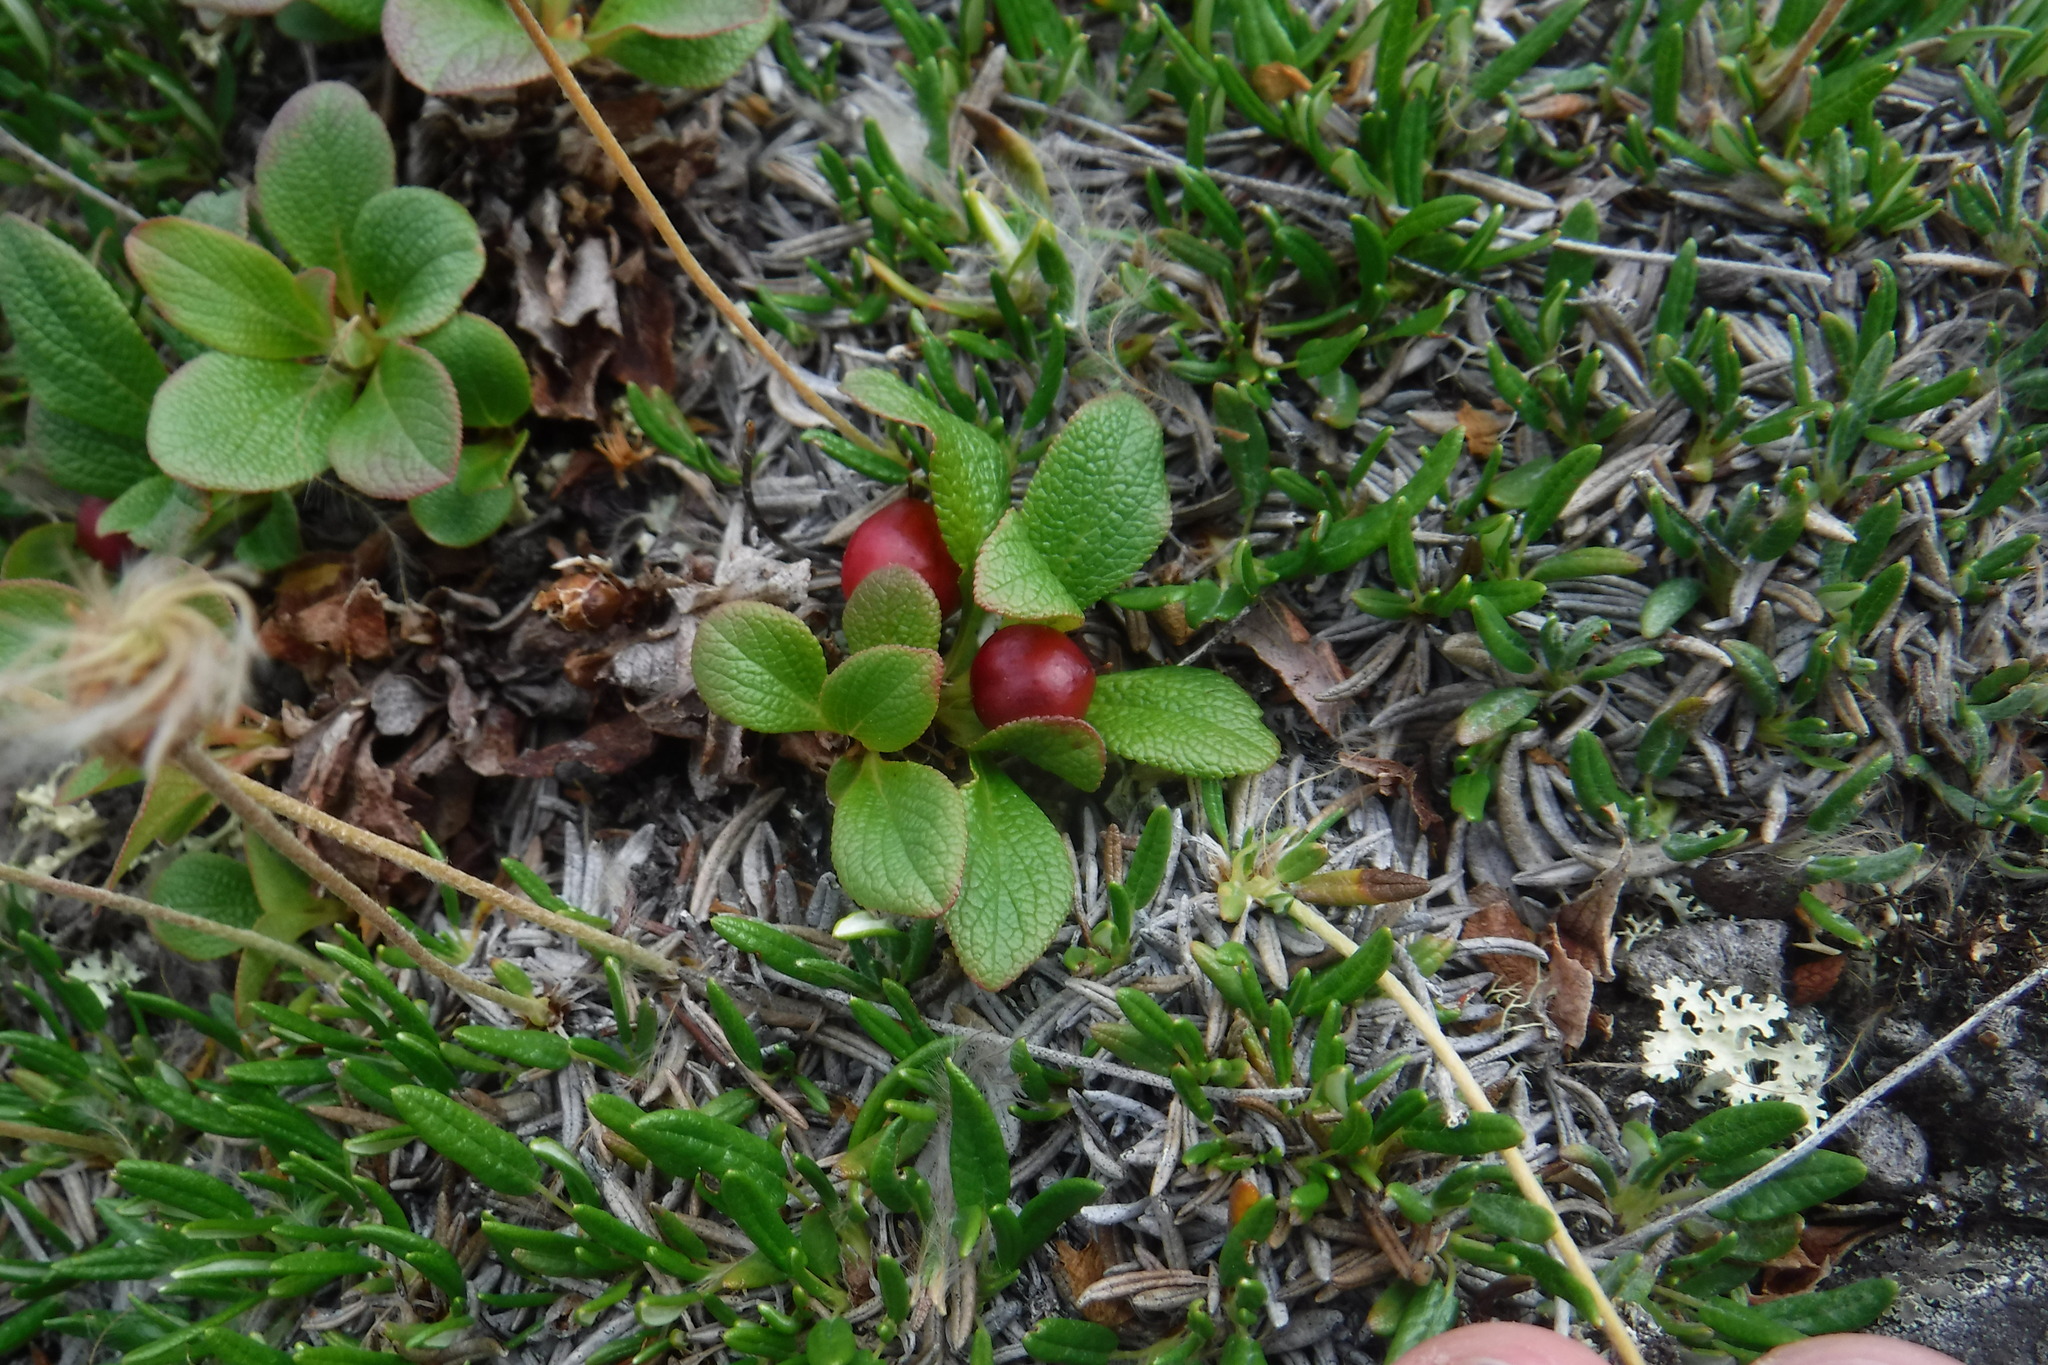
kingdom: Plantae
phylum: Tracheophyta
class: Magnoliopsida
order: Ericales
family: Ericaceae
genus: Arctostaphylos
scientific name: Arctostaphylos alpinus
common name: Alpine bearberry
